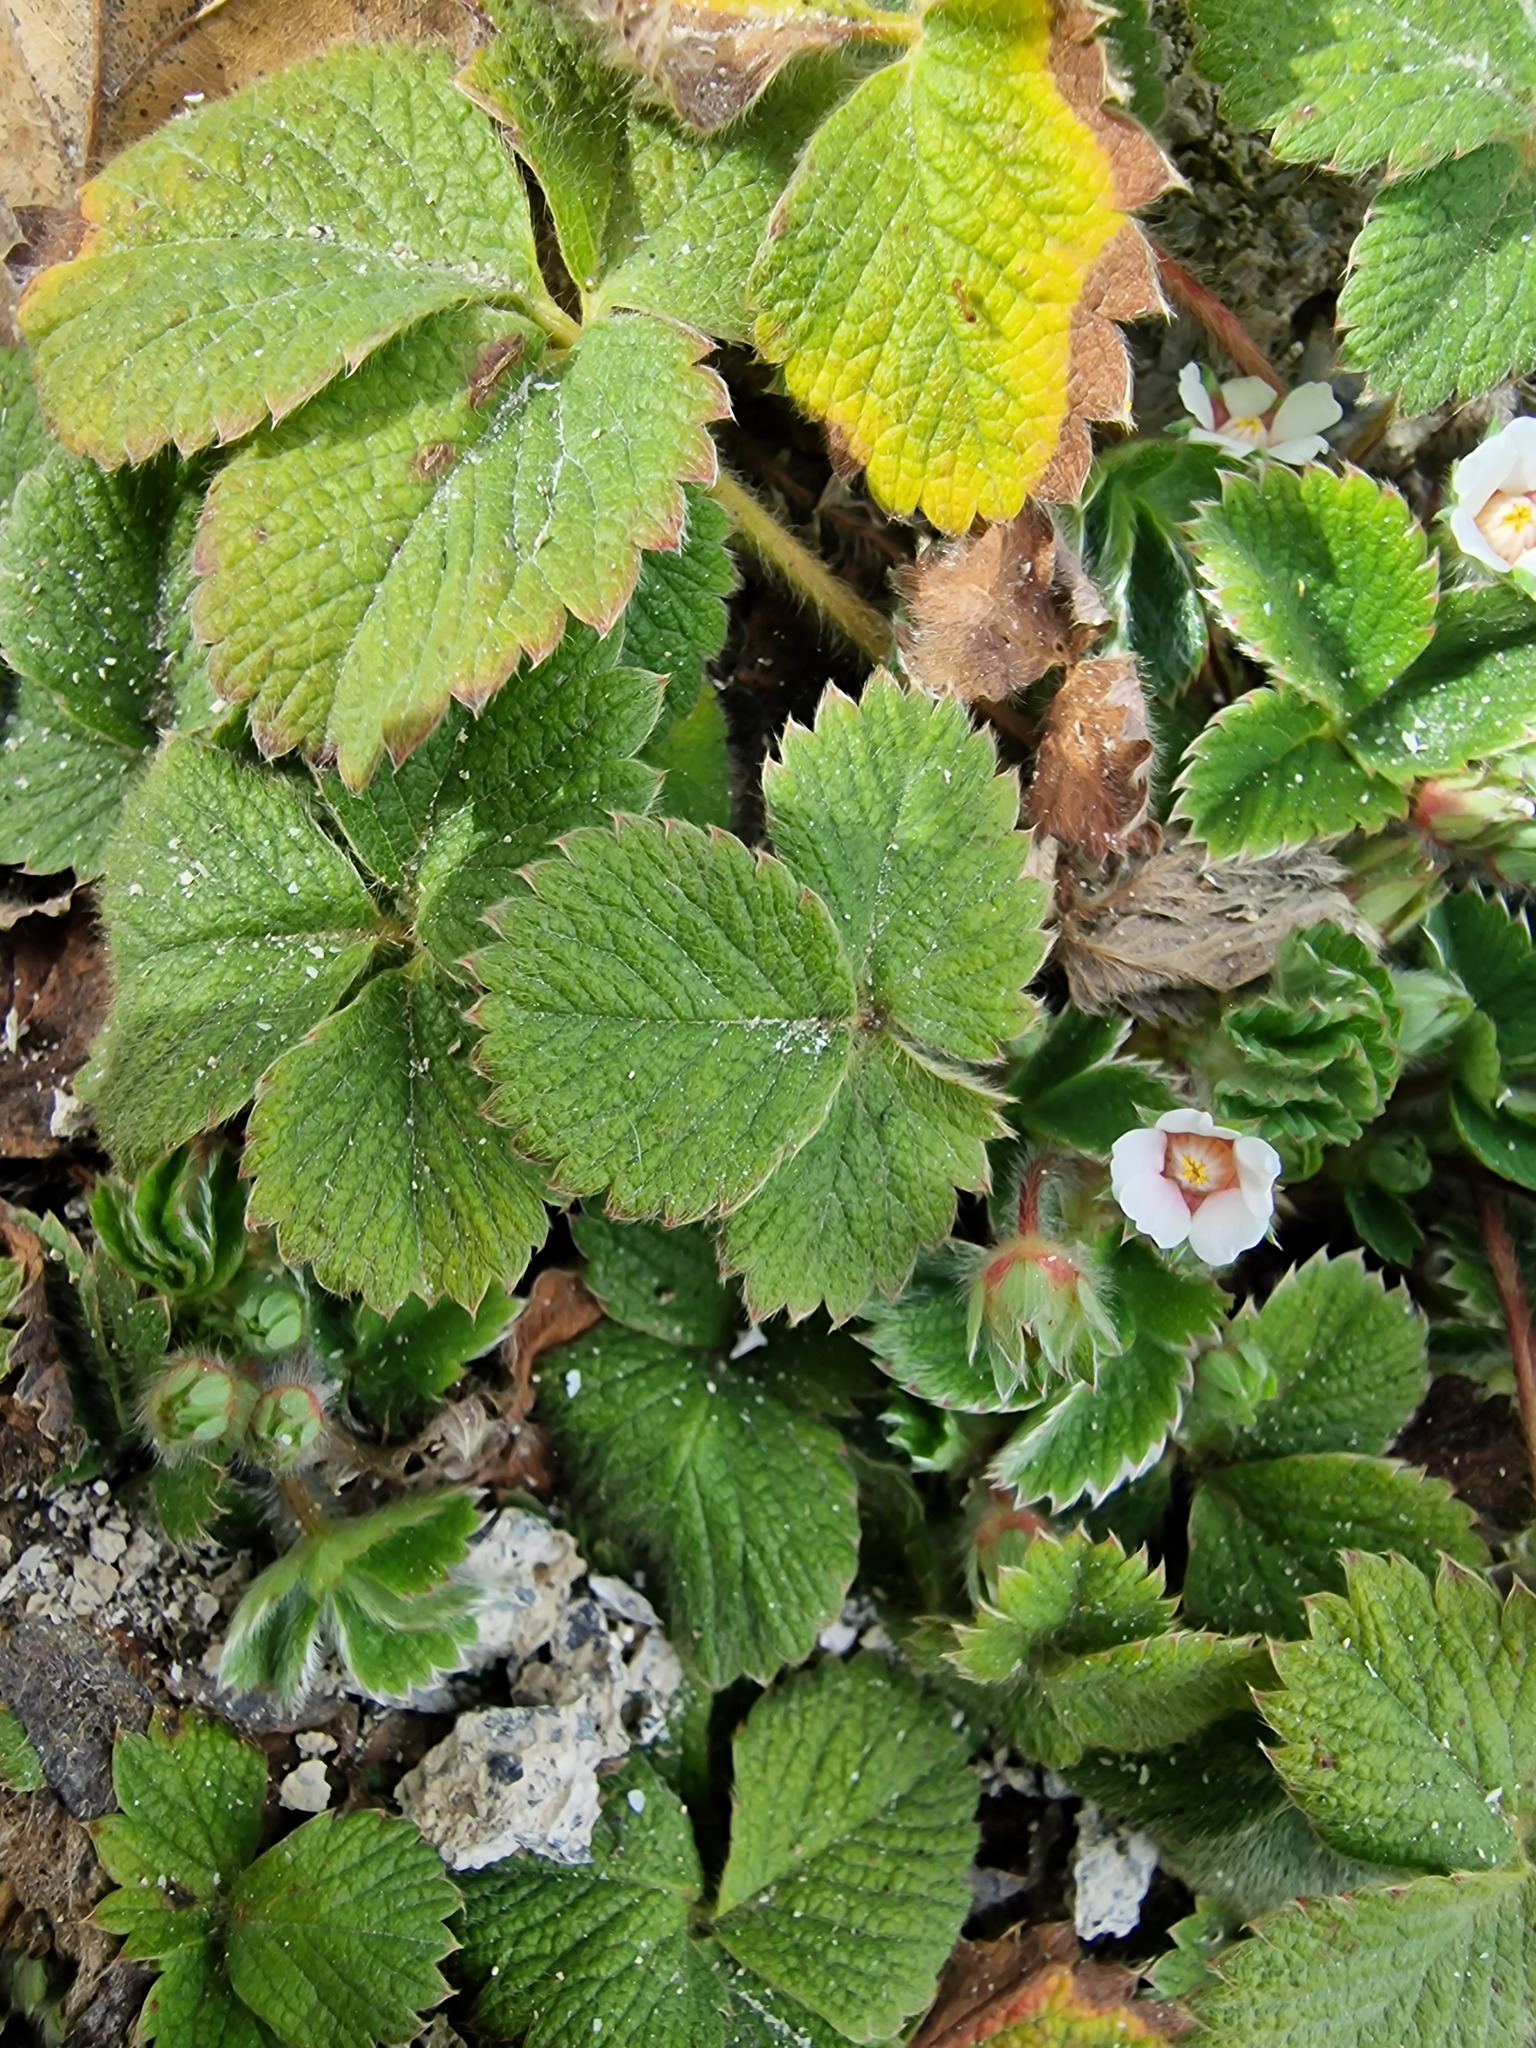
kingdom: Plantae
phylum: Tracheophyta
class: Magnoliopsida
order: Rosales
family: Rosaceae
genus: Potentilla
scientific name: Potentilla micrantha
